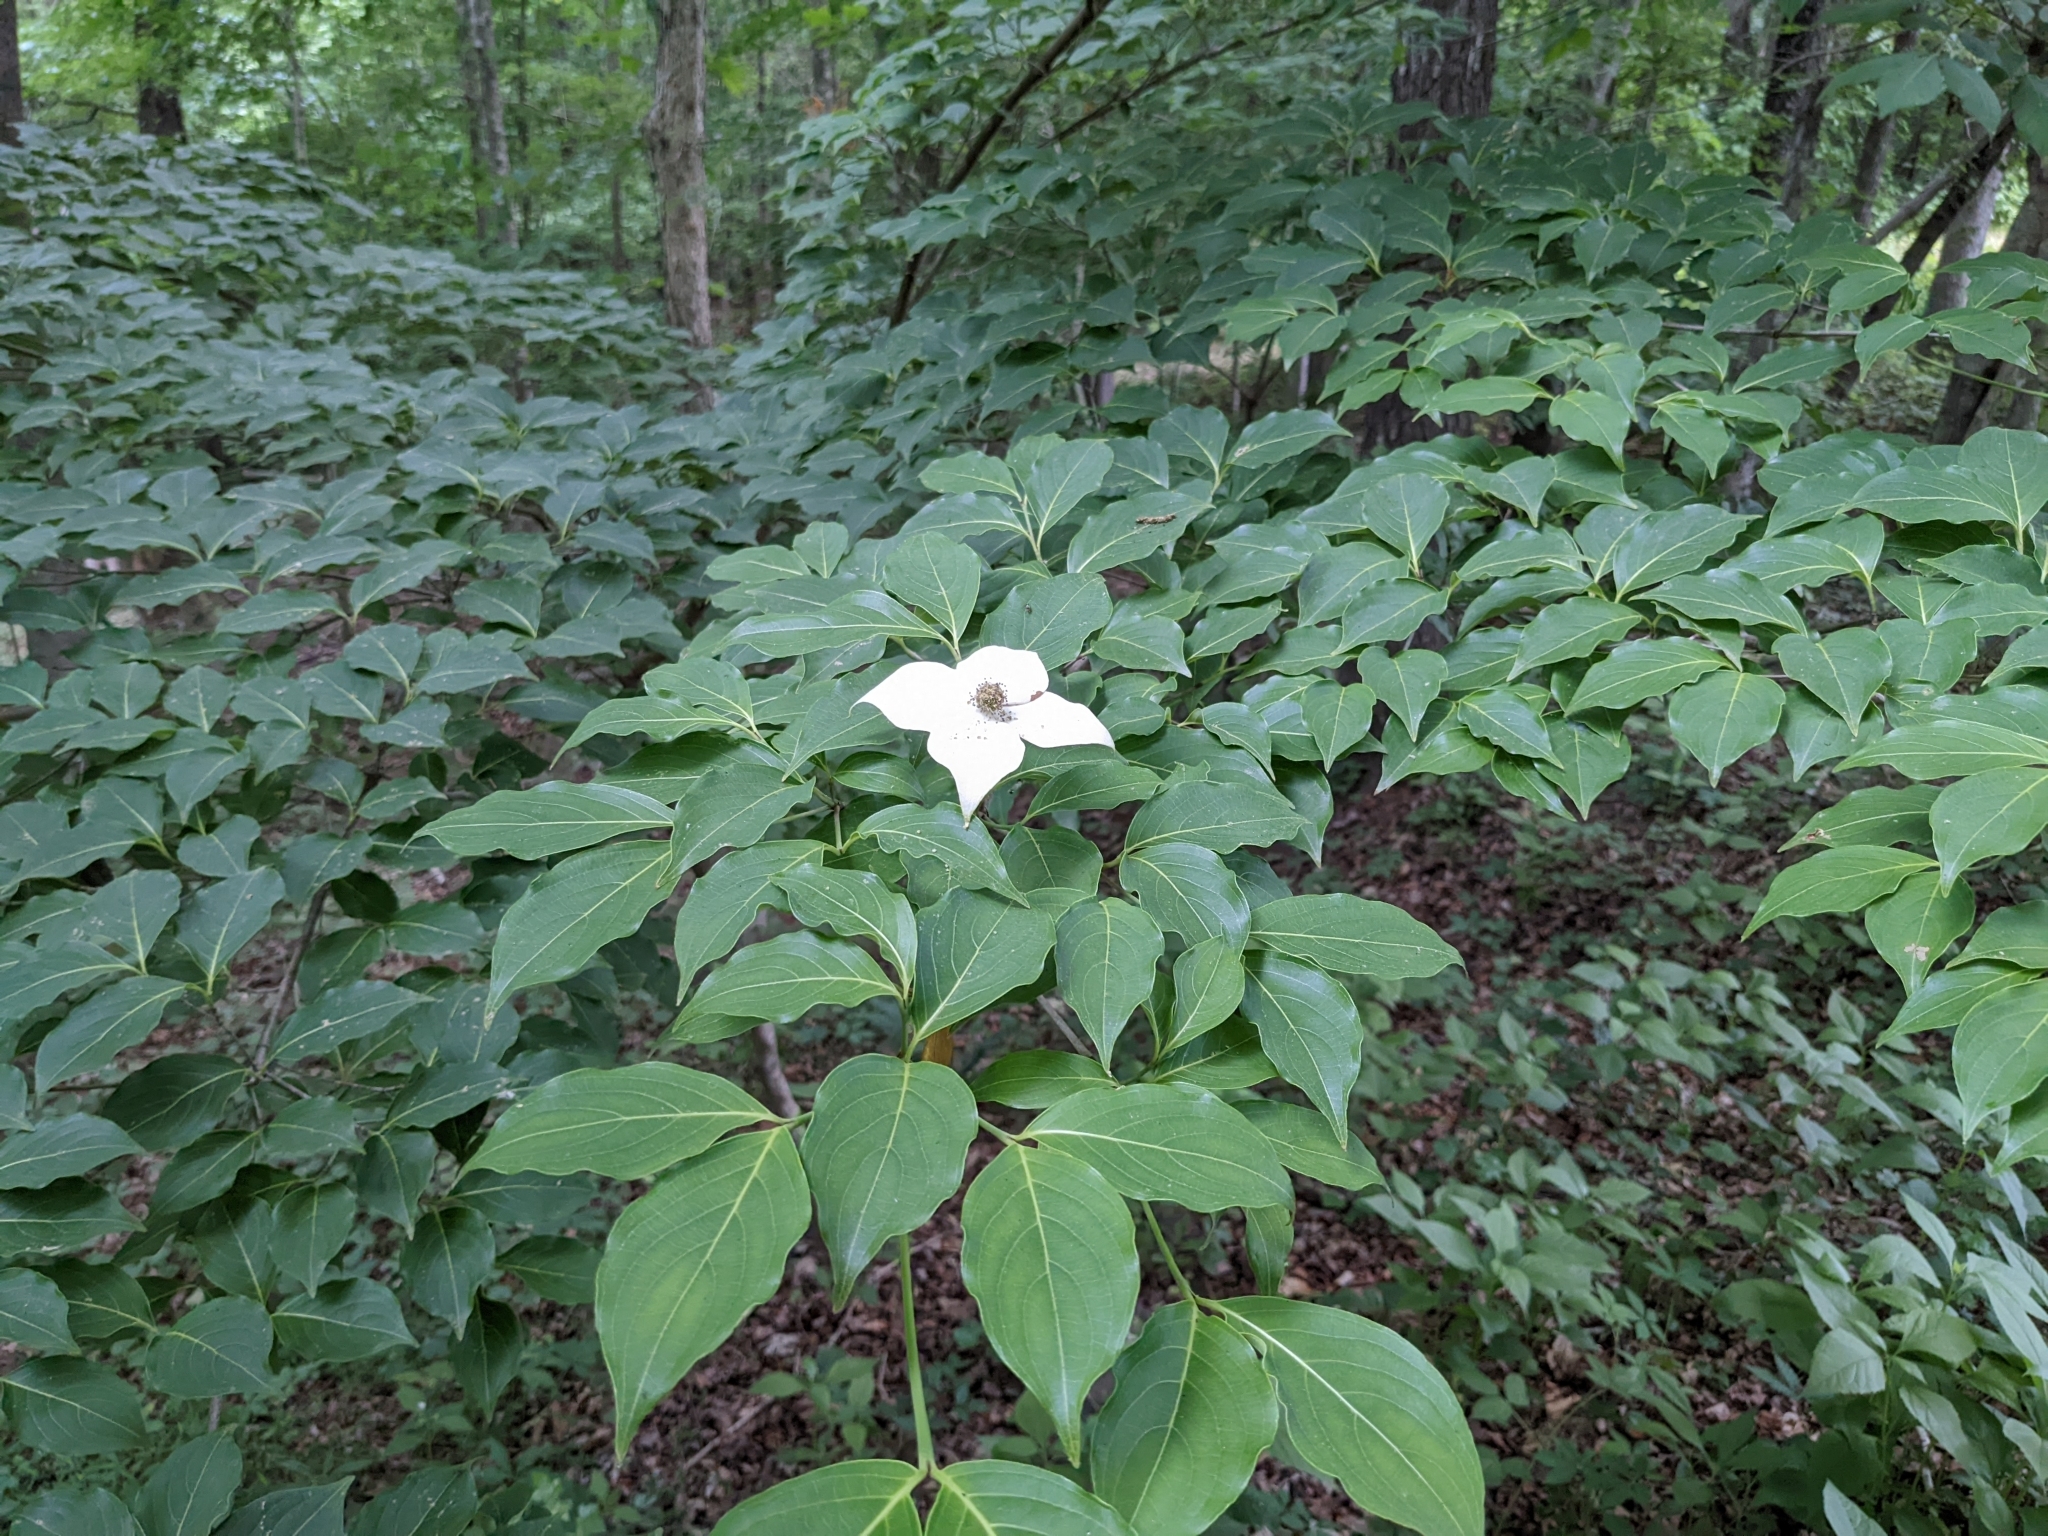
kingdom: Plantae
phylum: Tracheophyta
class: Magnoliopsida
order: Cornales
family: Cornaceae
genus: Cornus
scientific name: Cornus kousa
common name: Japanese dogwood
